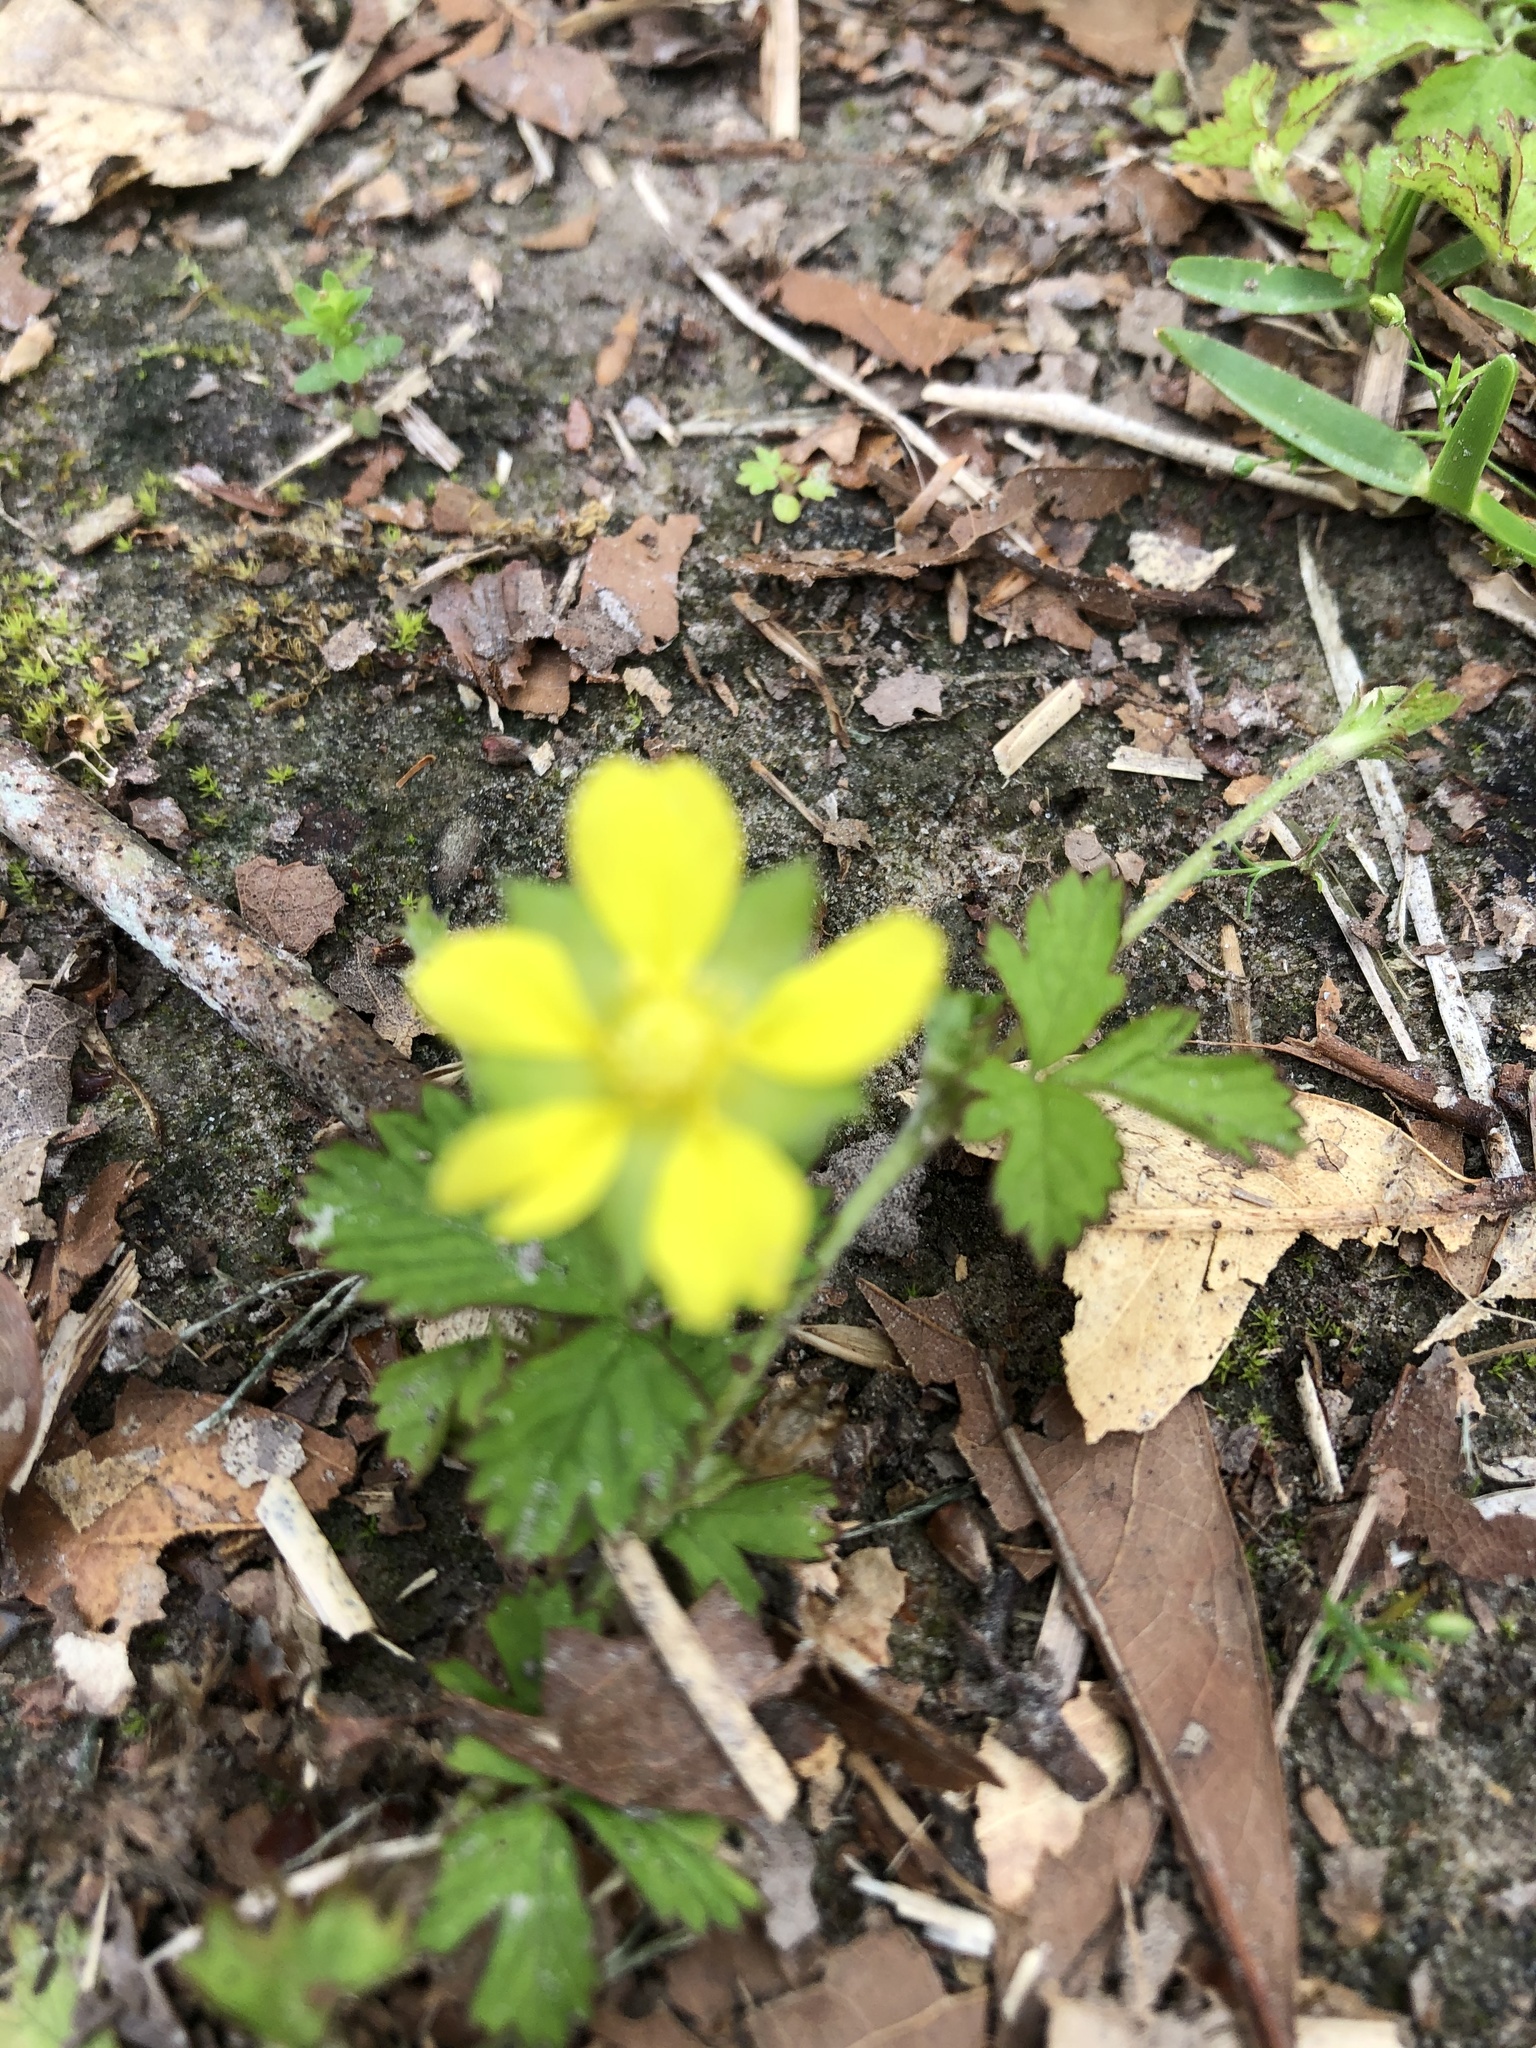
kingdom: Plantae
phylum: Tracheophyta
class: Magnoliopsida
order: Rosales
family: Rosaceae
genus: Potentilla
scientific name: Potentilla indica
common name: Yellow-flowered strawberry
